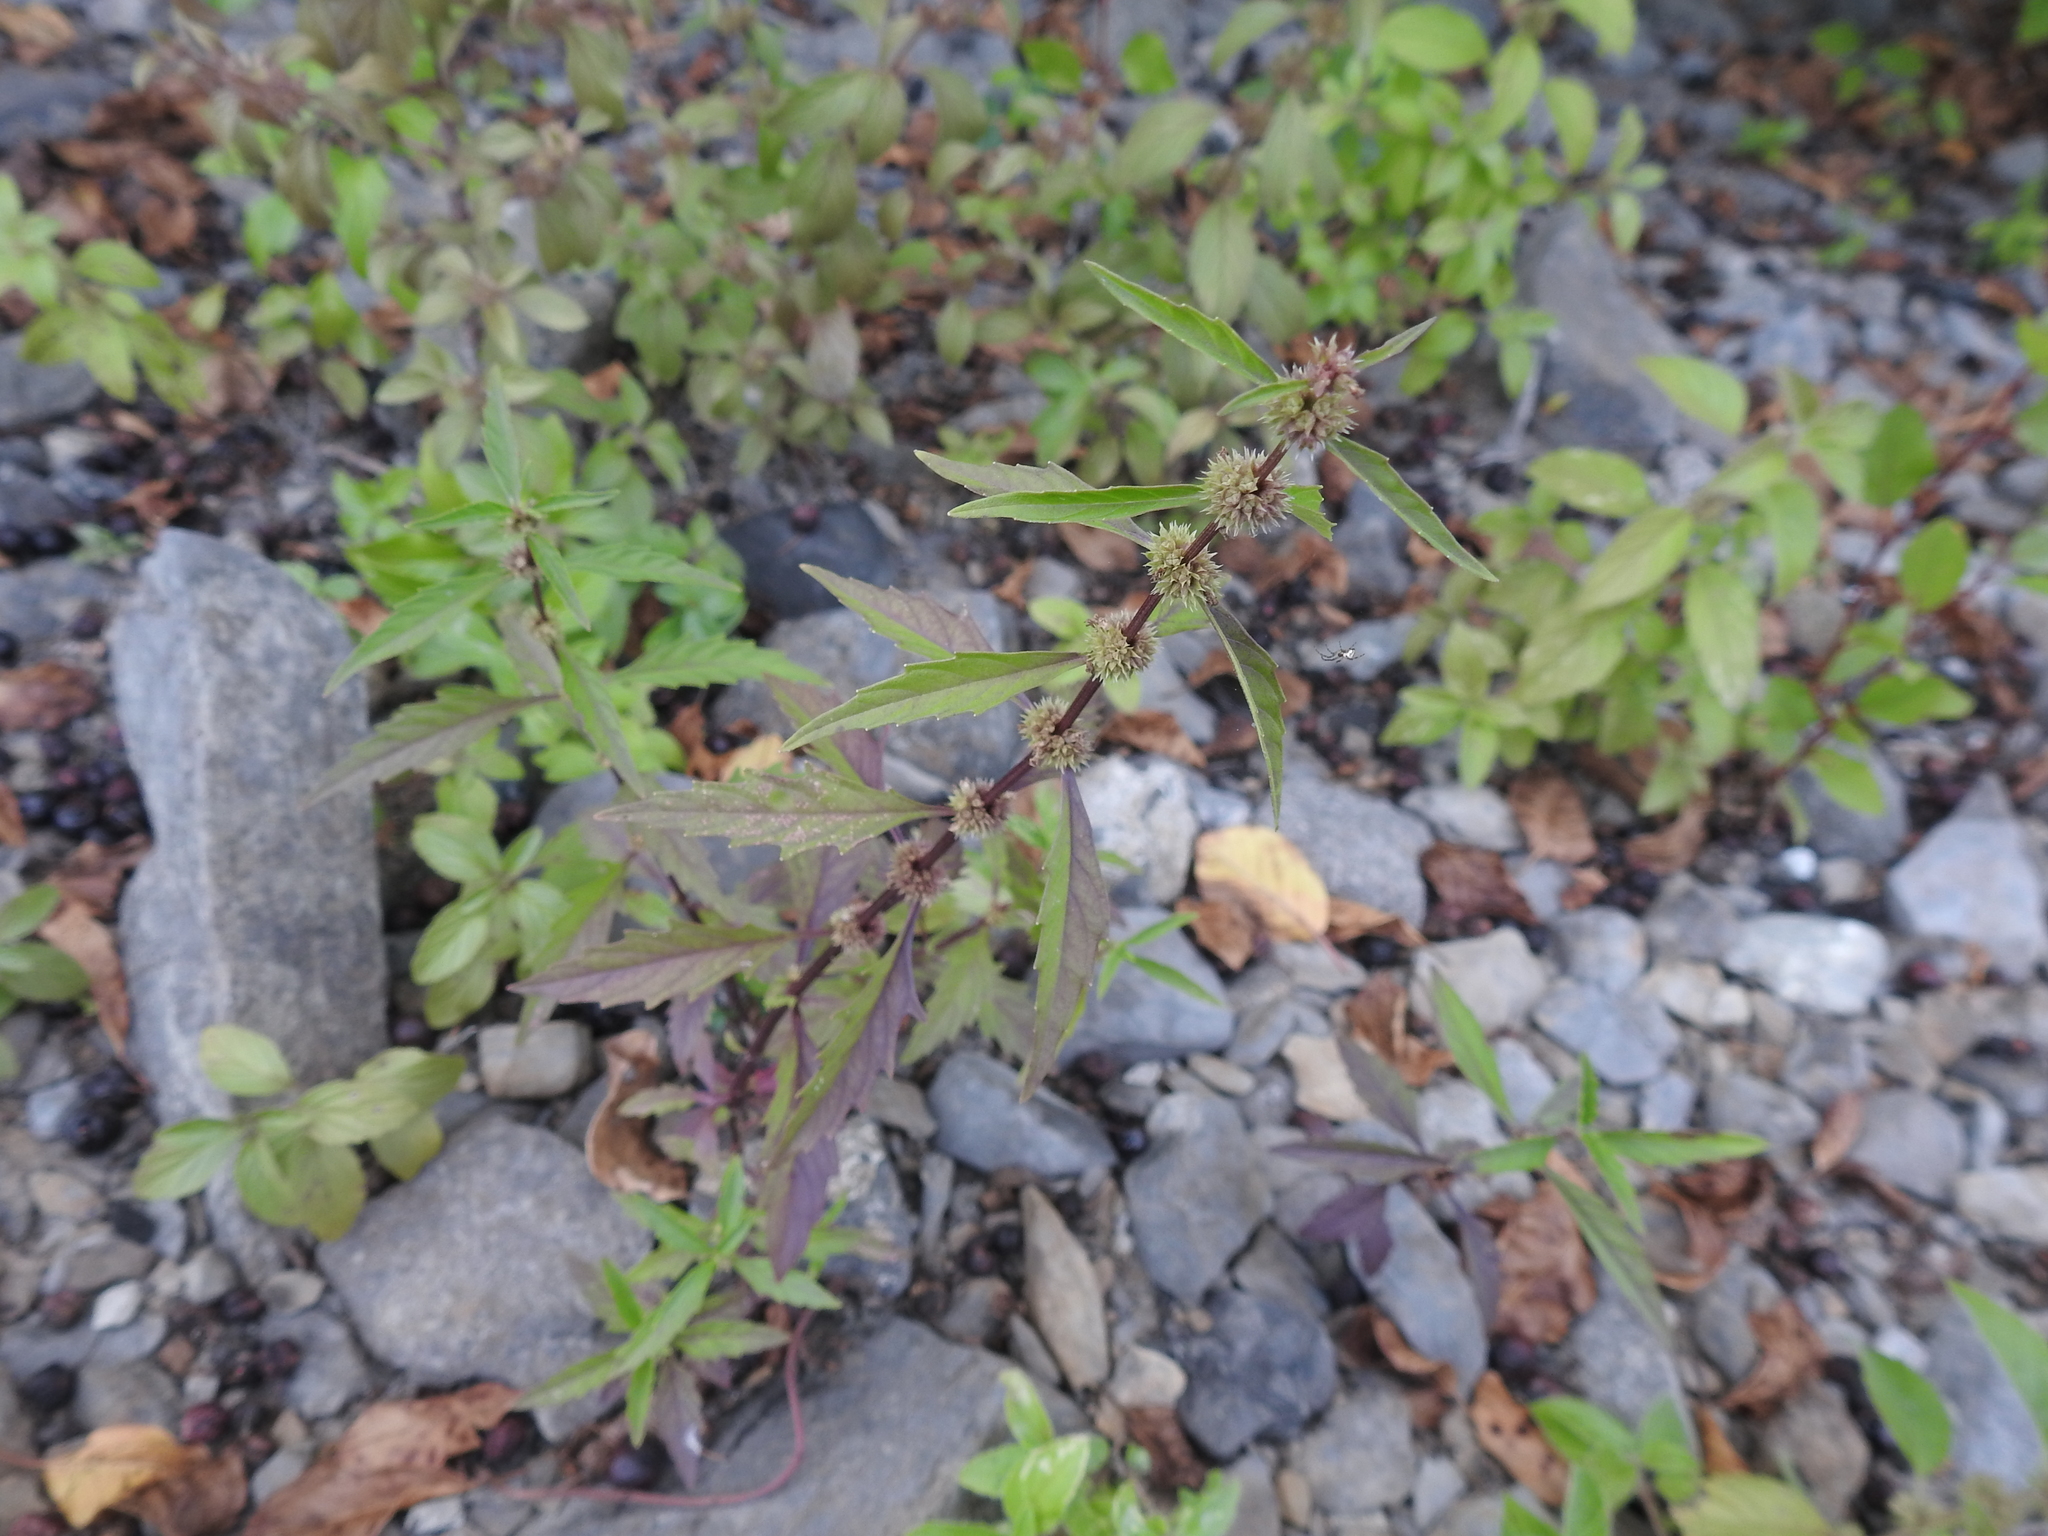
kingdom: Plantae
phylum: Tracheophyta
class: Magnoliopsida
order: Lamiales
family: Lamiaceae
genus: Lycopus
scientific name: Lycopus americanus
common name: American bugleweed
